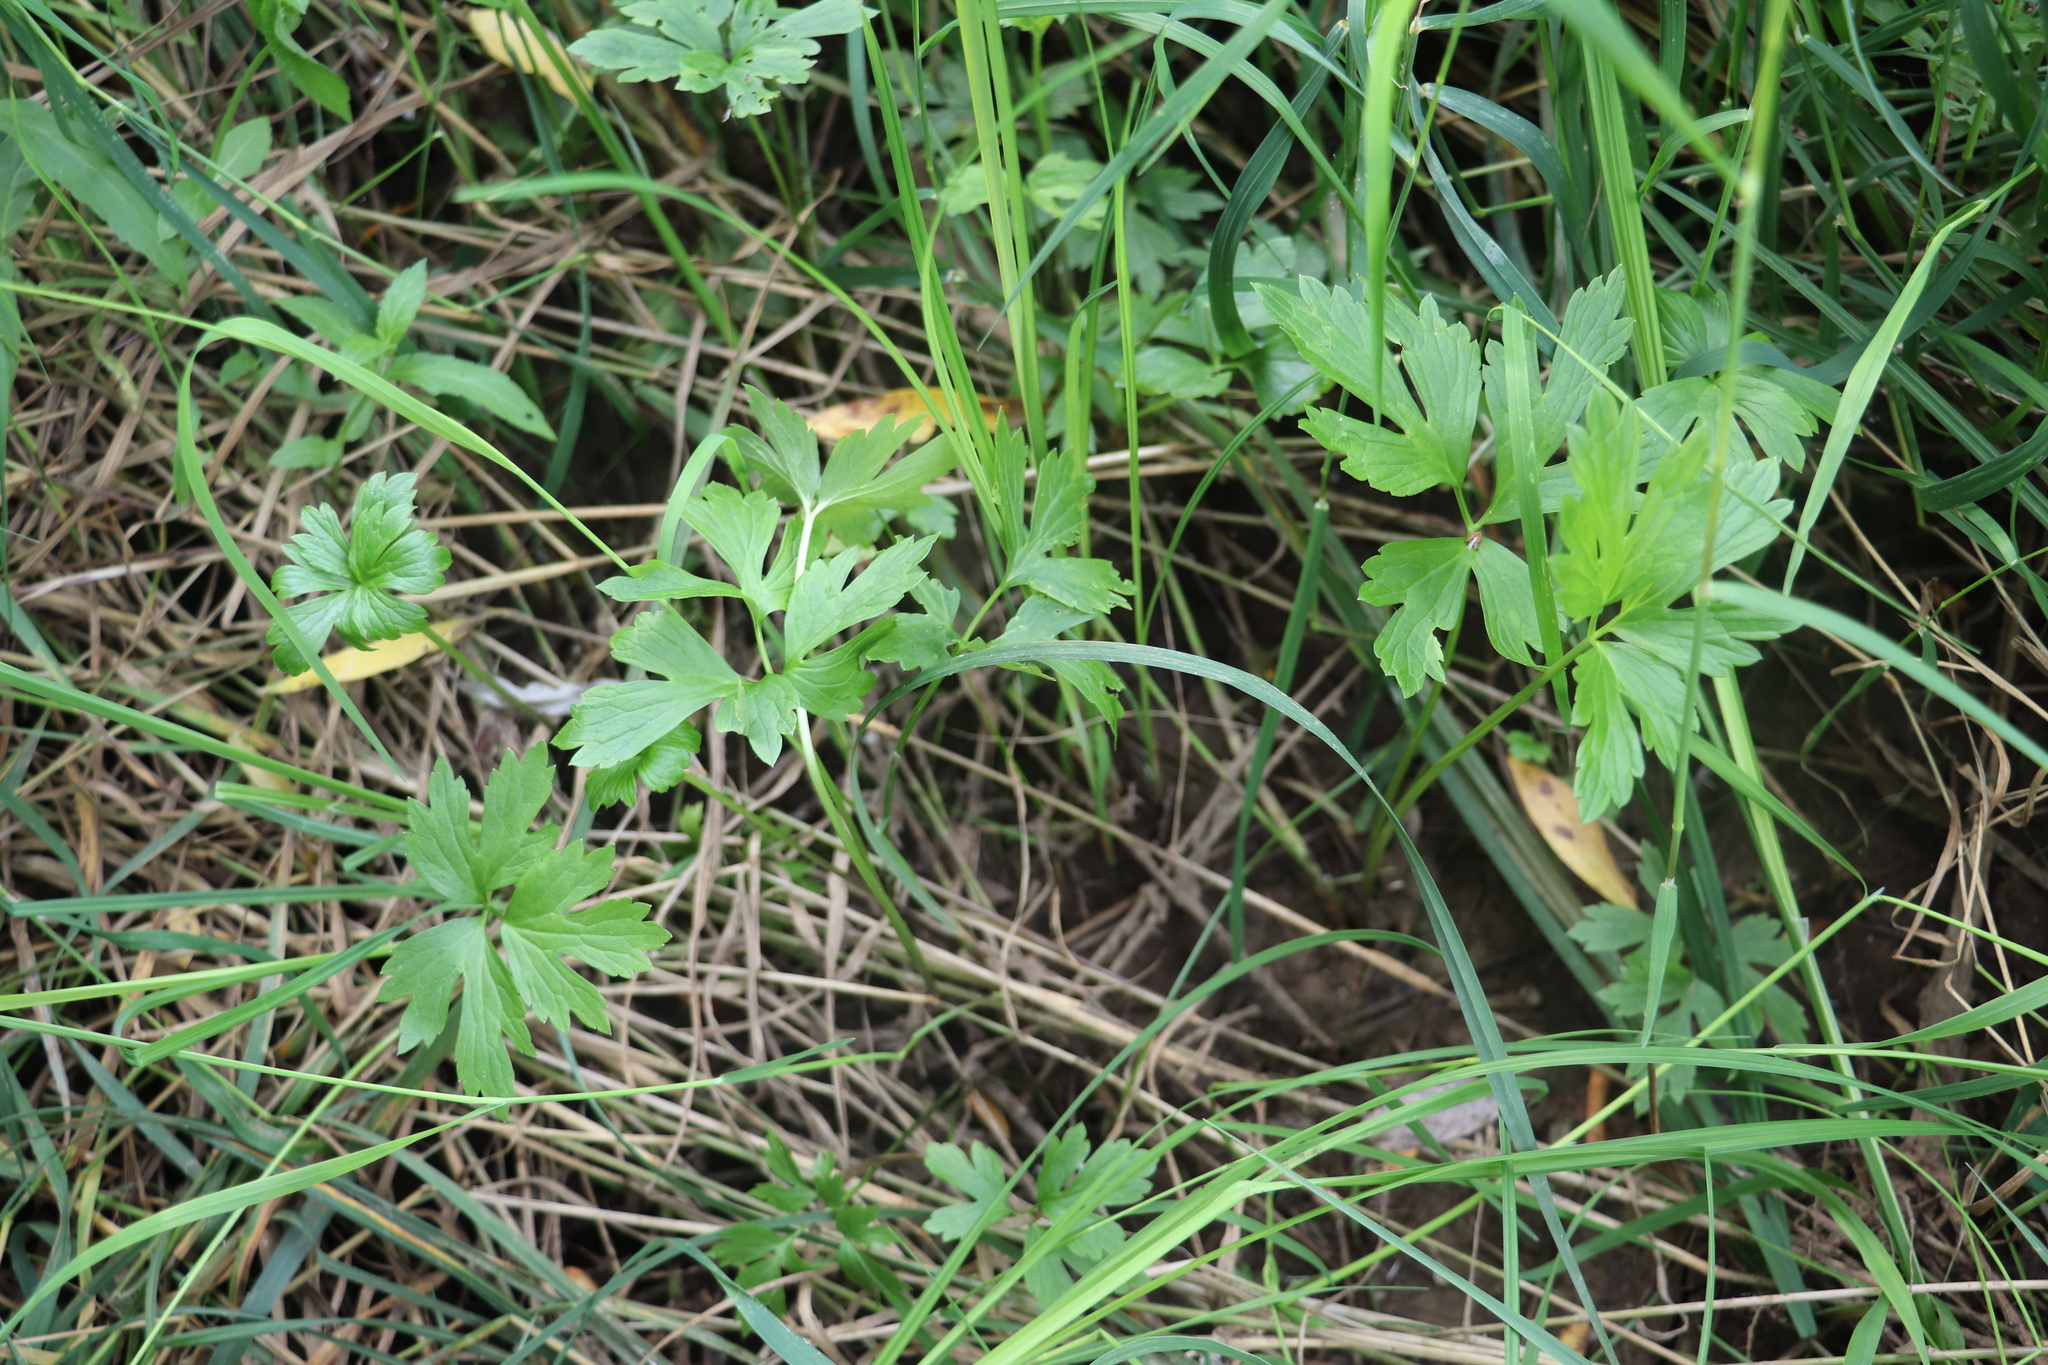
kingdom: Plantae
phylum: Tracheophyta
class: Magnoliopsida
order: Ranunculales
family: Ranunculaceae
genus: Ranunculus
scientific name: Ranunculus repens
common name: Creeping buttercup
